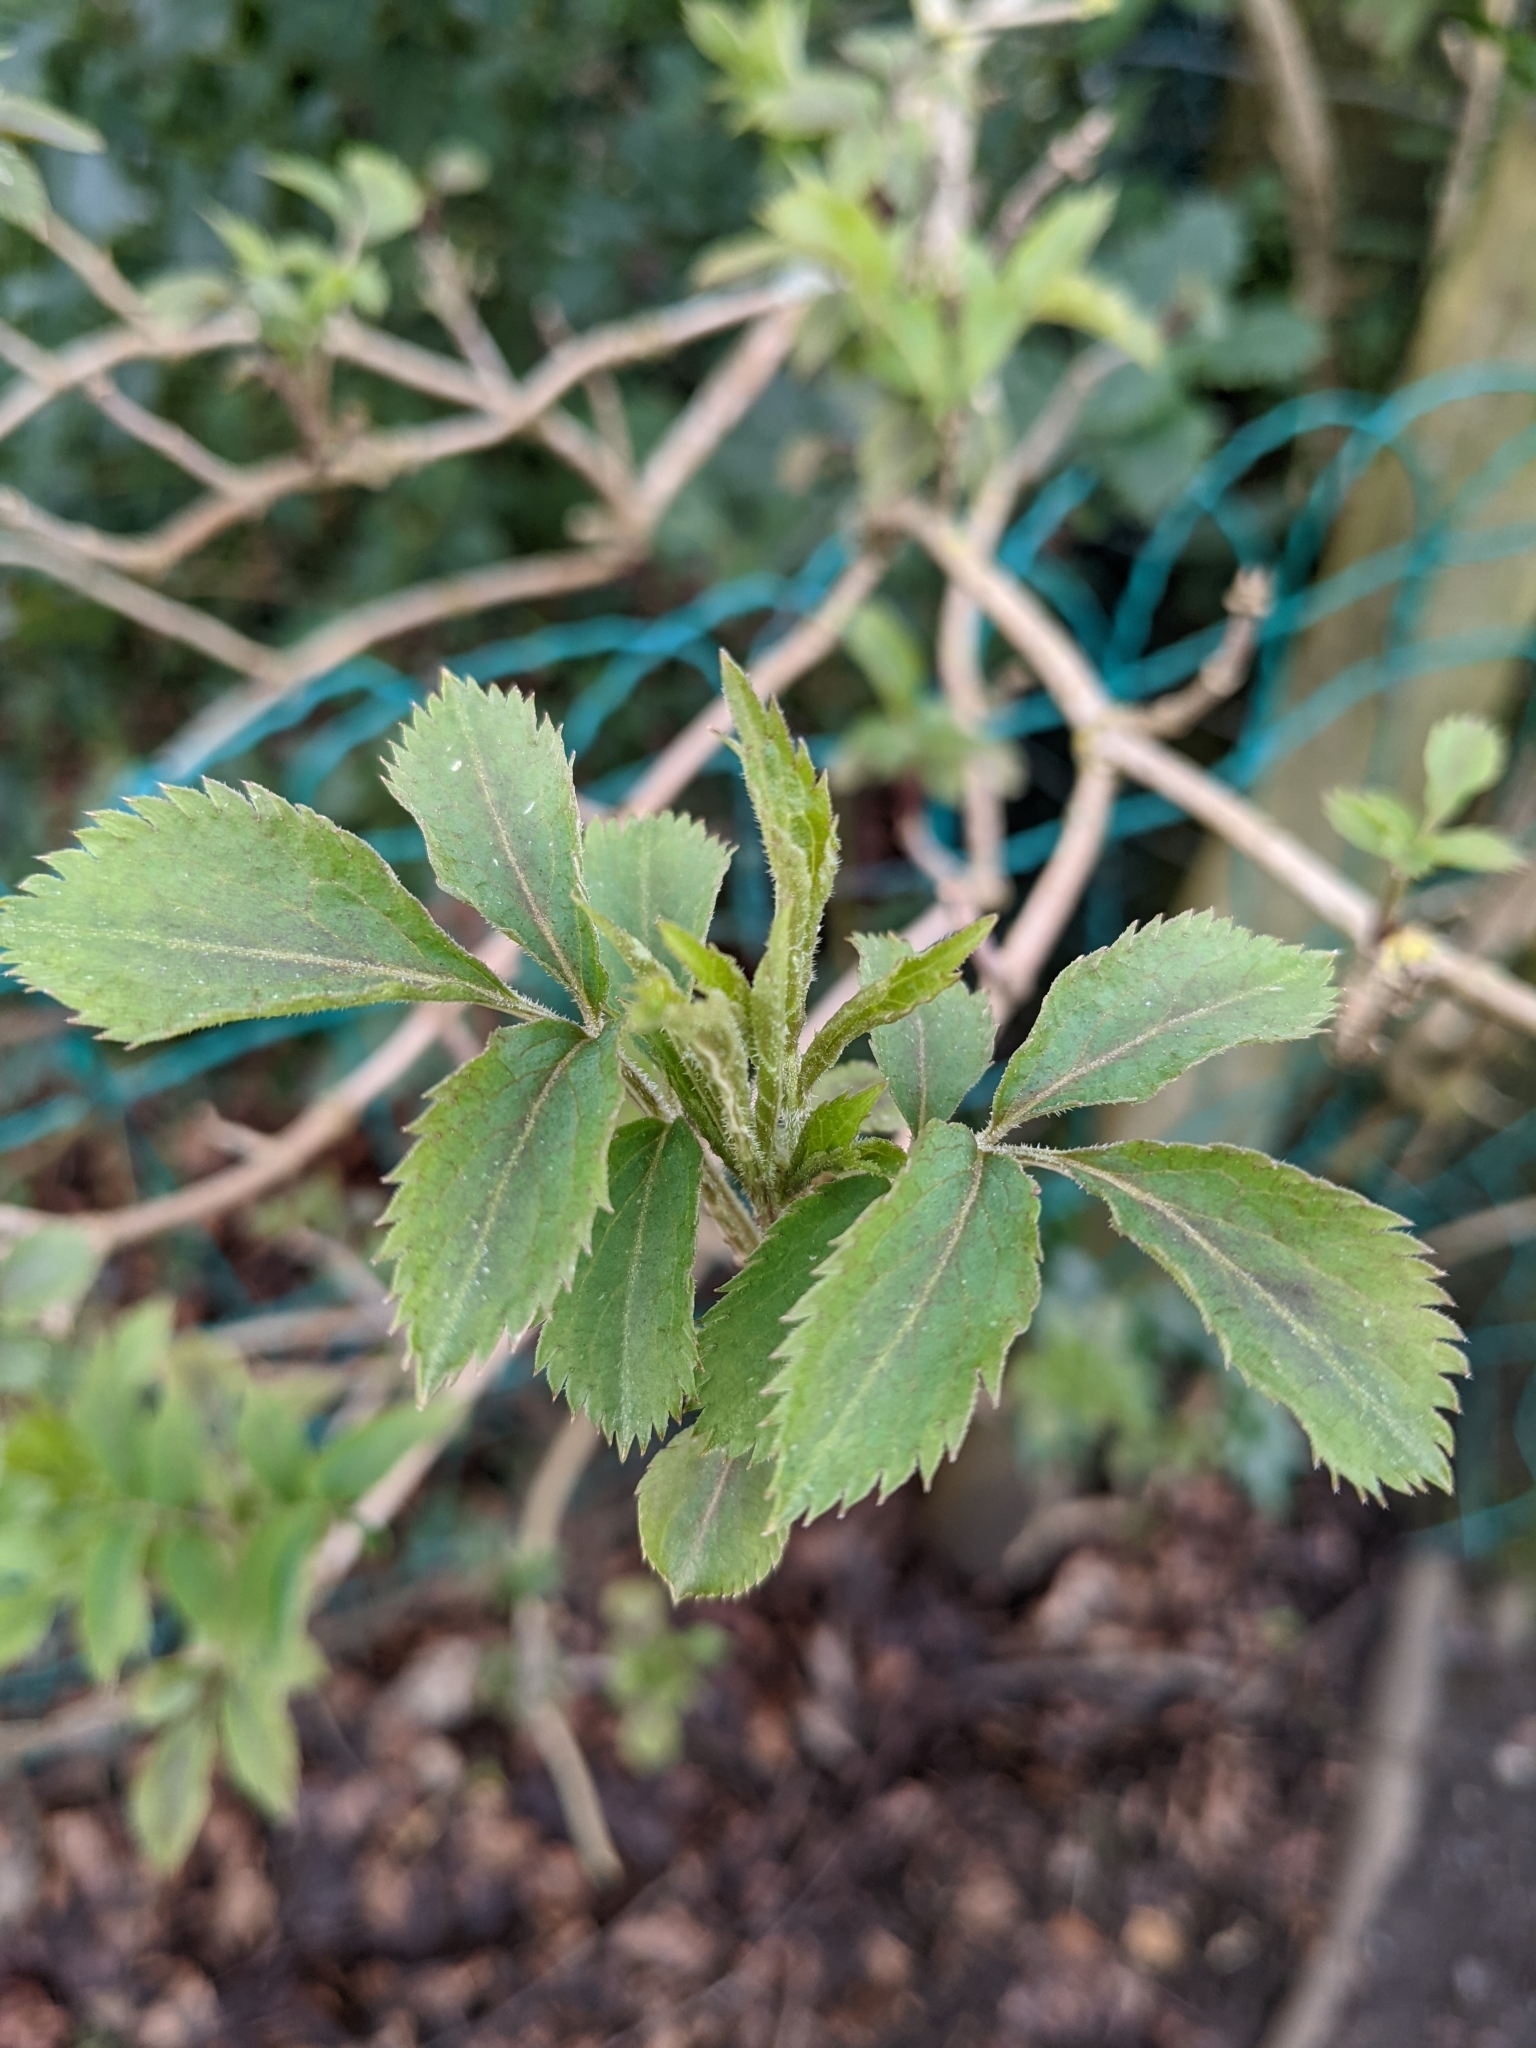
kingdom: Plantae
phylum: Tracheophyta
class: Magnoliopsida
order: Dipsacales
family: Viburnaceae
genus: Sambucus
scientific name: Sambucus nigra
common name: Elder
